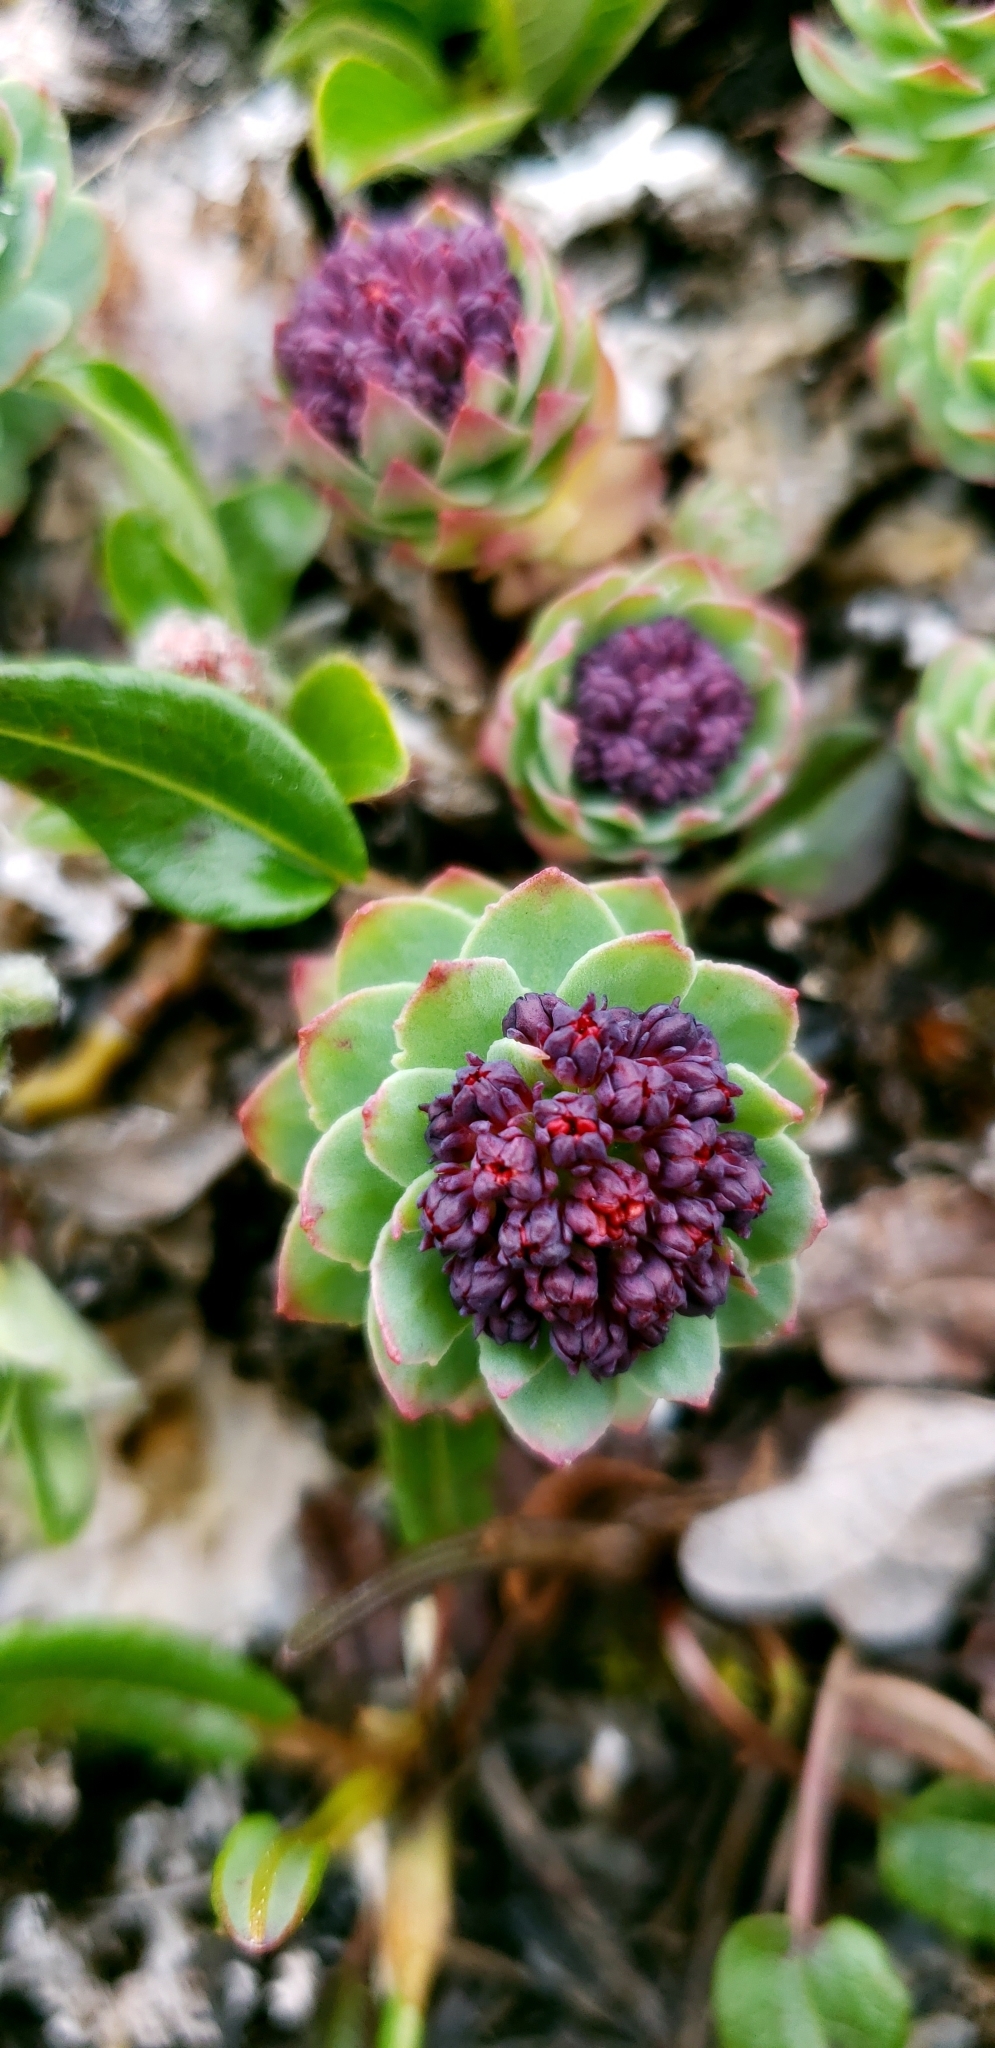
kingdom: Plantae
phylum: Tracheophyta
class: Magnoliopsida
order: Saxifragales
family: Crassulaceae
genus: Rhodiola
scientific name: Rhodiola integrifolia
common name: Western roseroot
